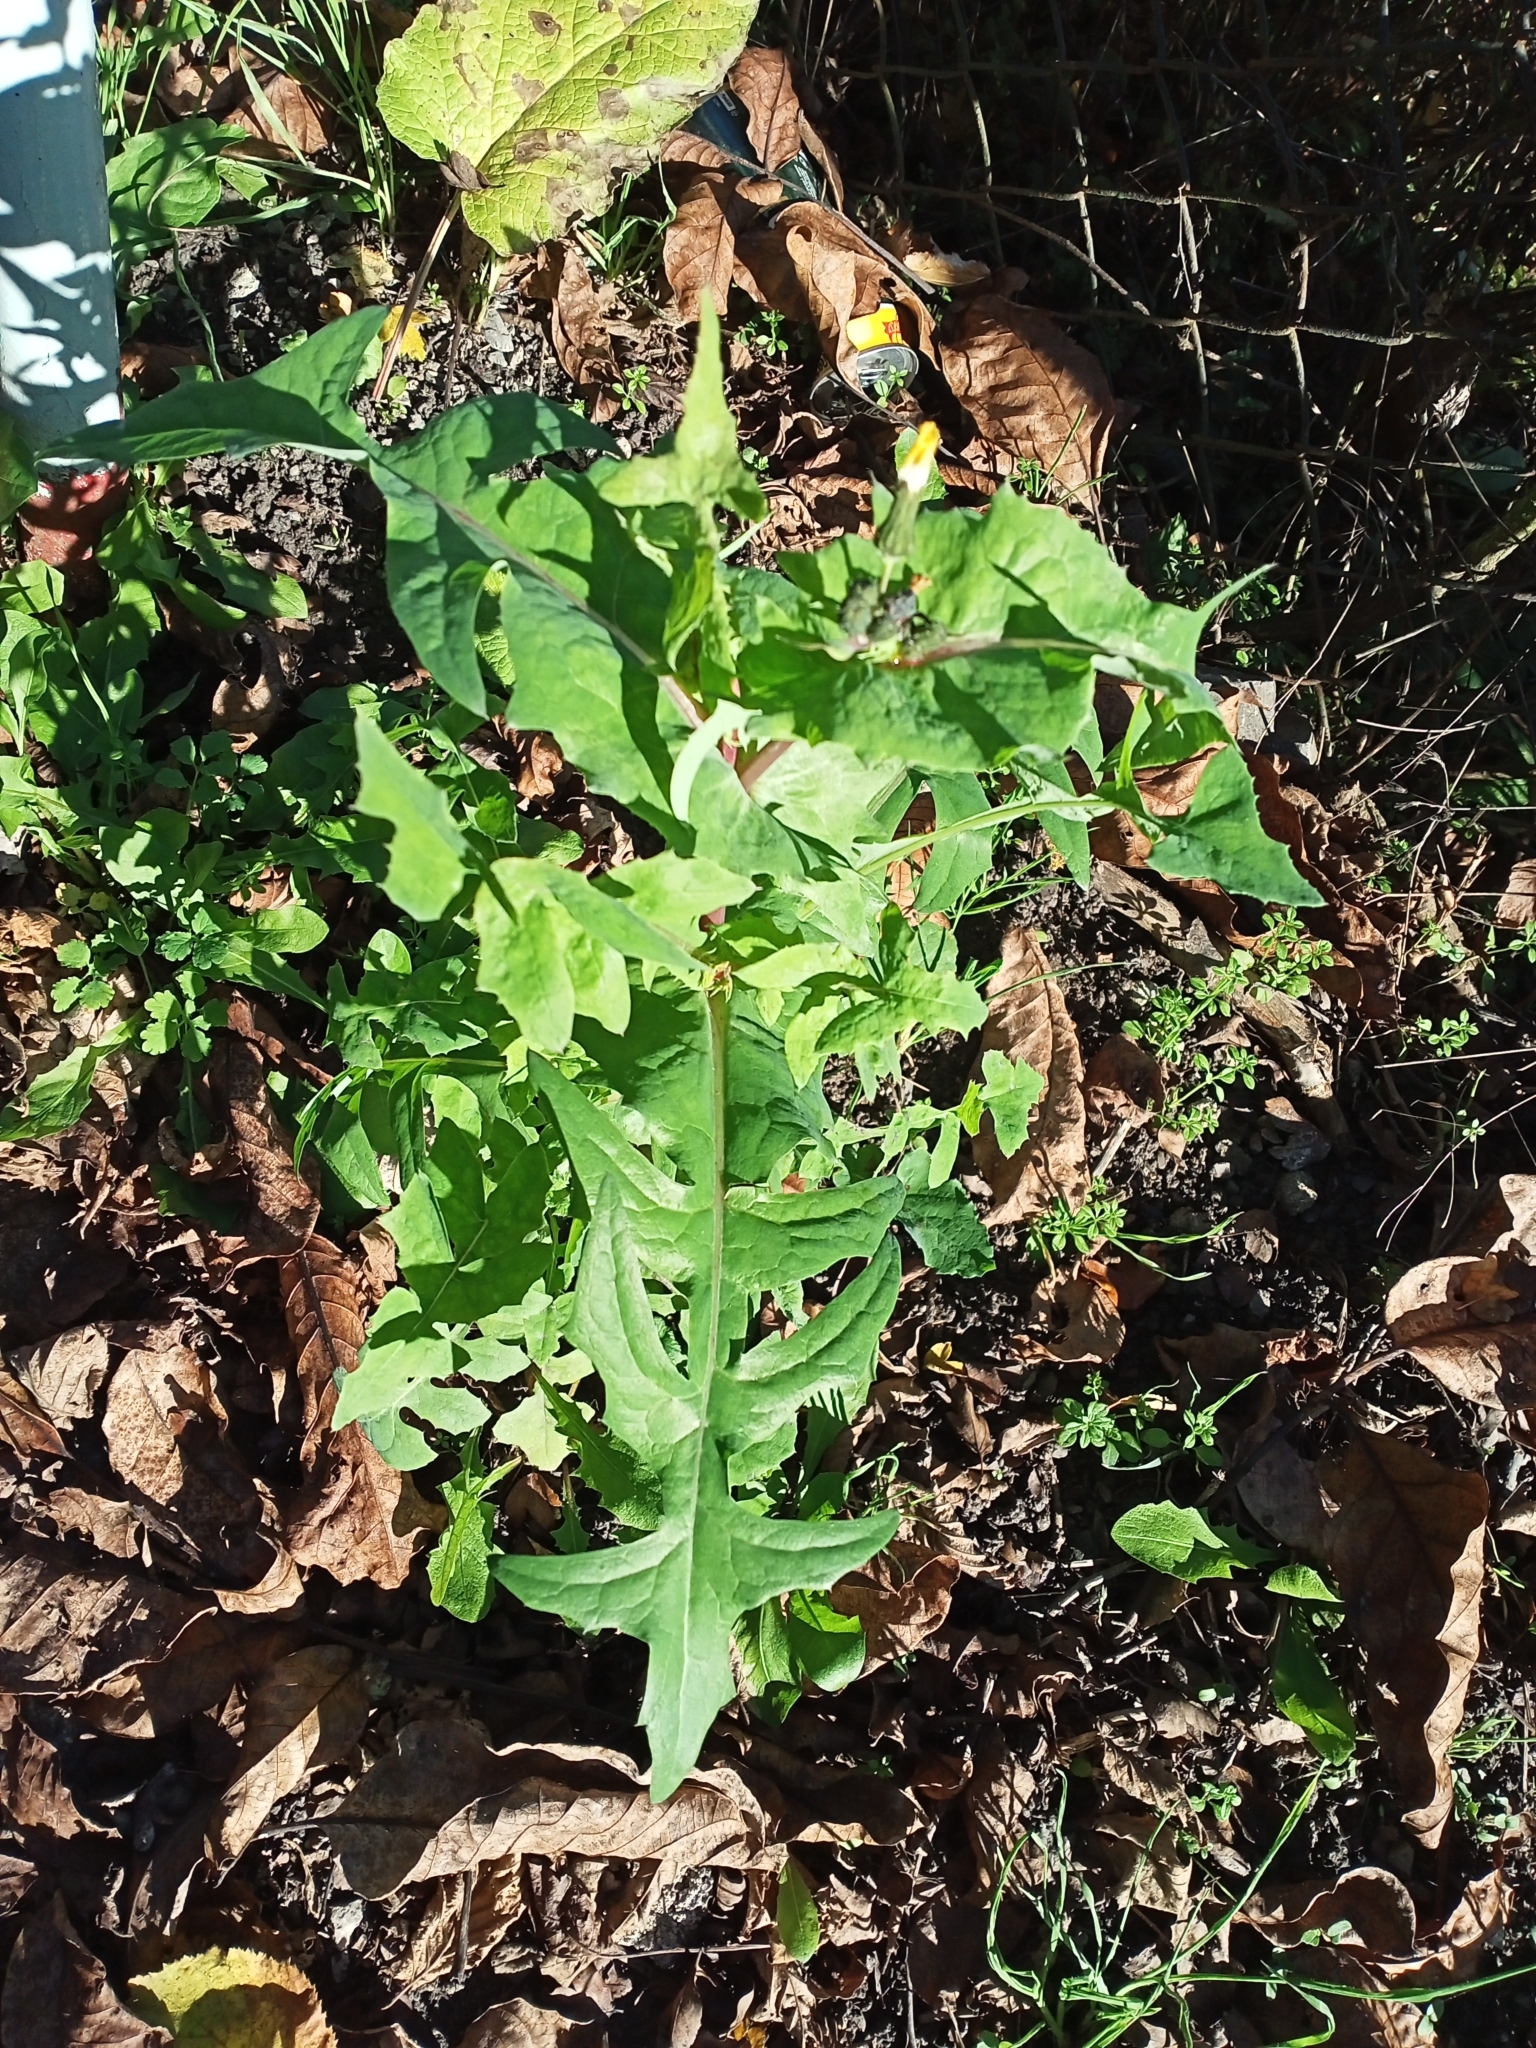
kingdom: Plantae
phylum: Tracheophyta
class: Magnoliopsida
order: Asterales
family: Asteraceae
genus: Sonchus
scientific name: Sonchus oleraceus
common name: Common sowthistle
